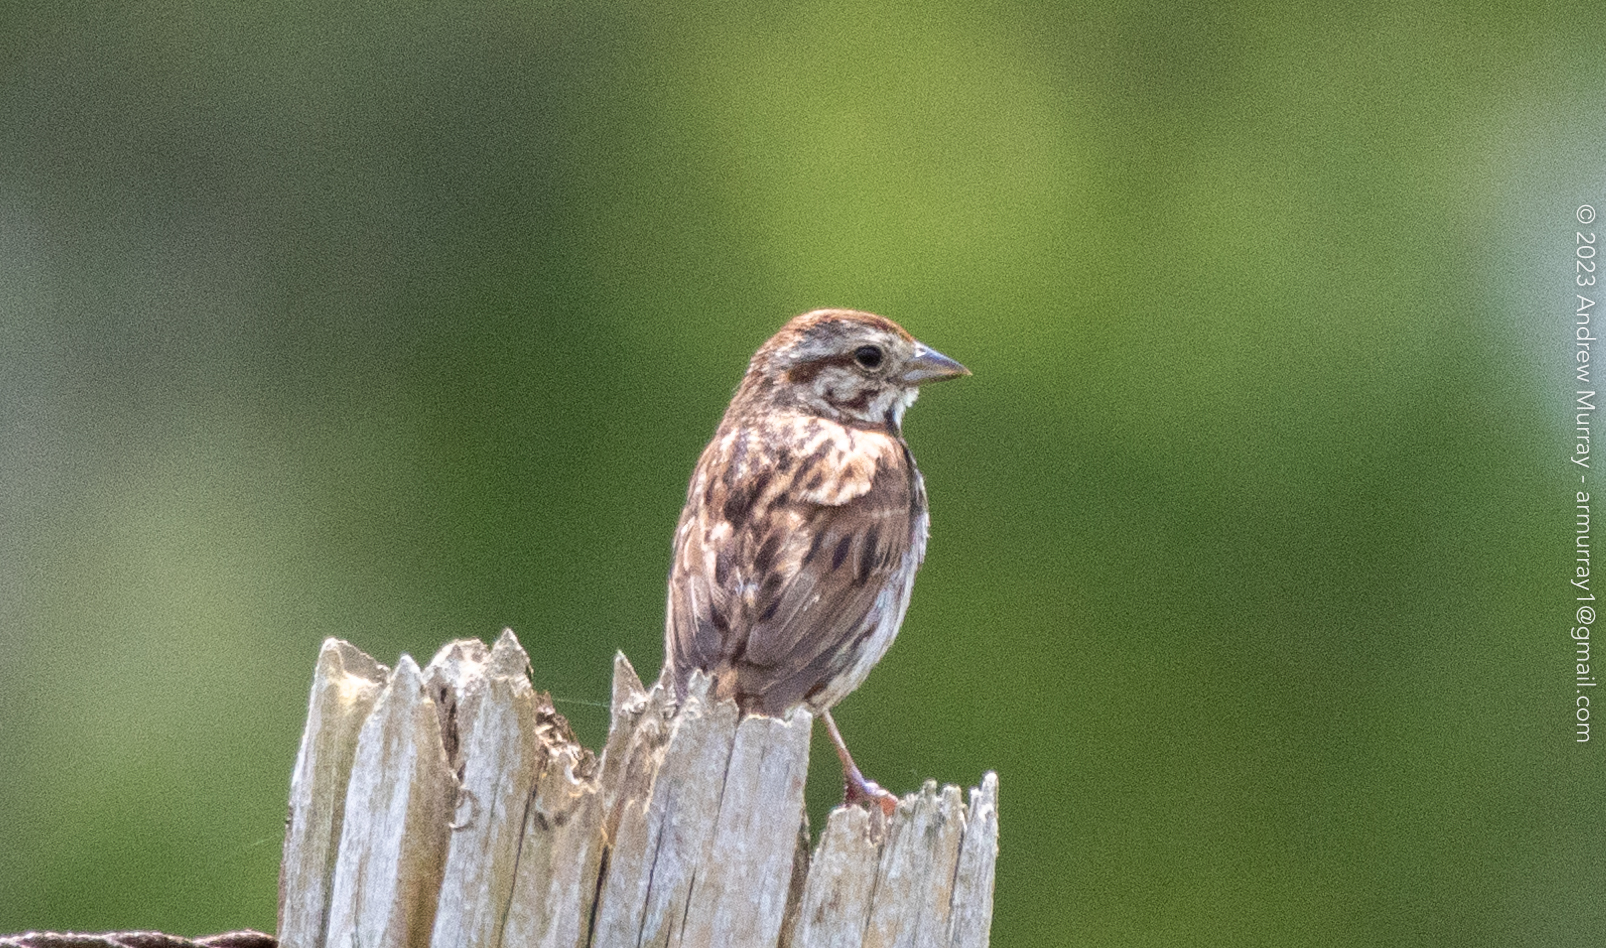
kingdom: Animalia
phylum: Chordata
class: Aves
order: Passeriformes
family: Passerellidae
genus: Melospiza
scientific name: Melospiza melodia
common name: Song sparrow
